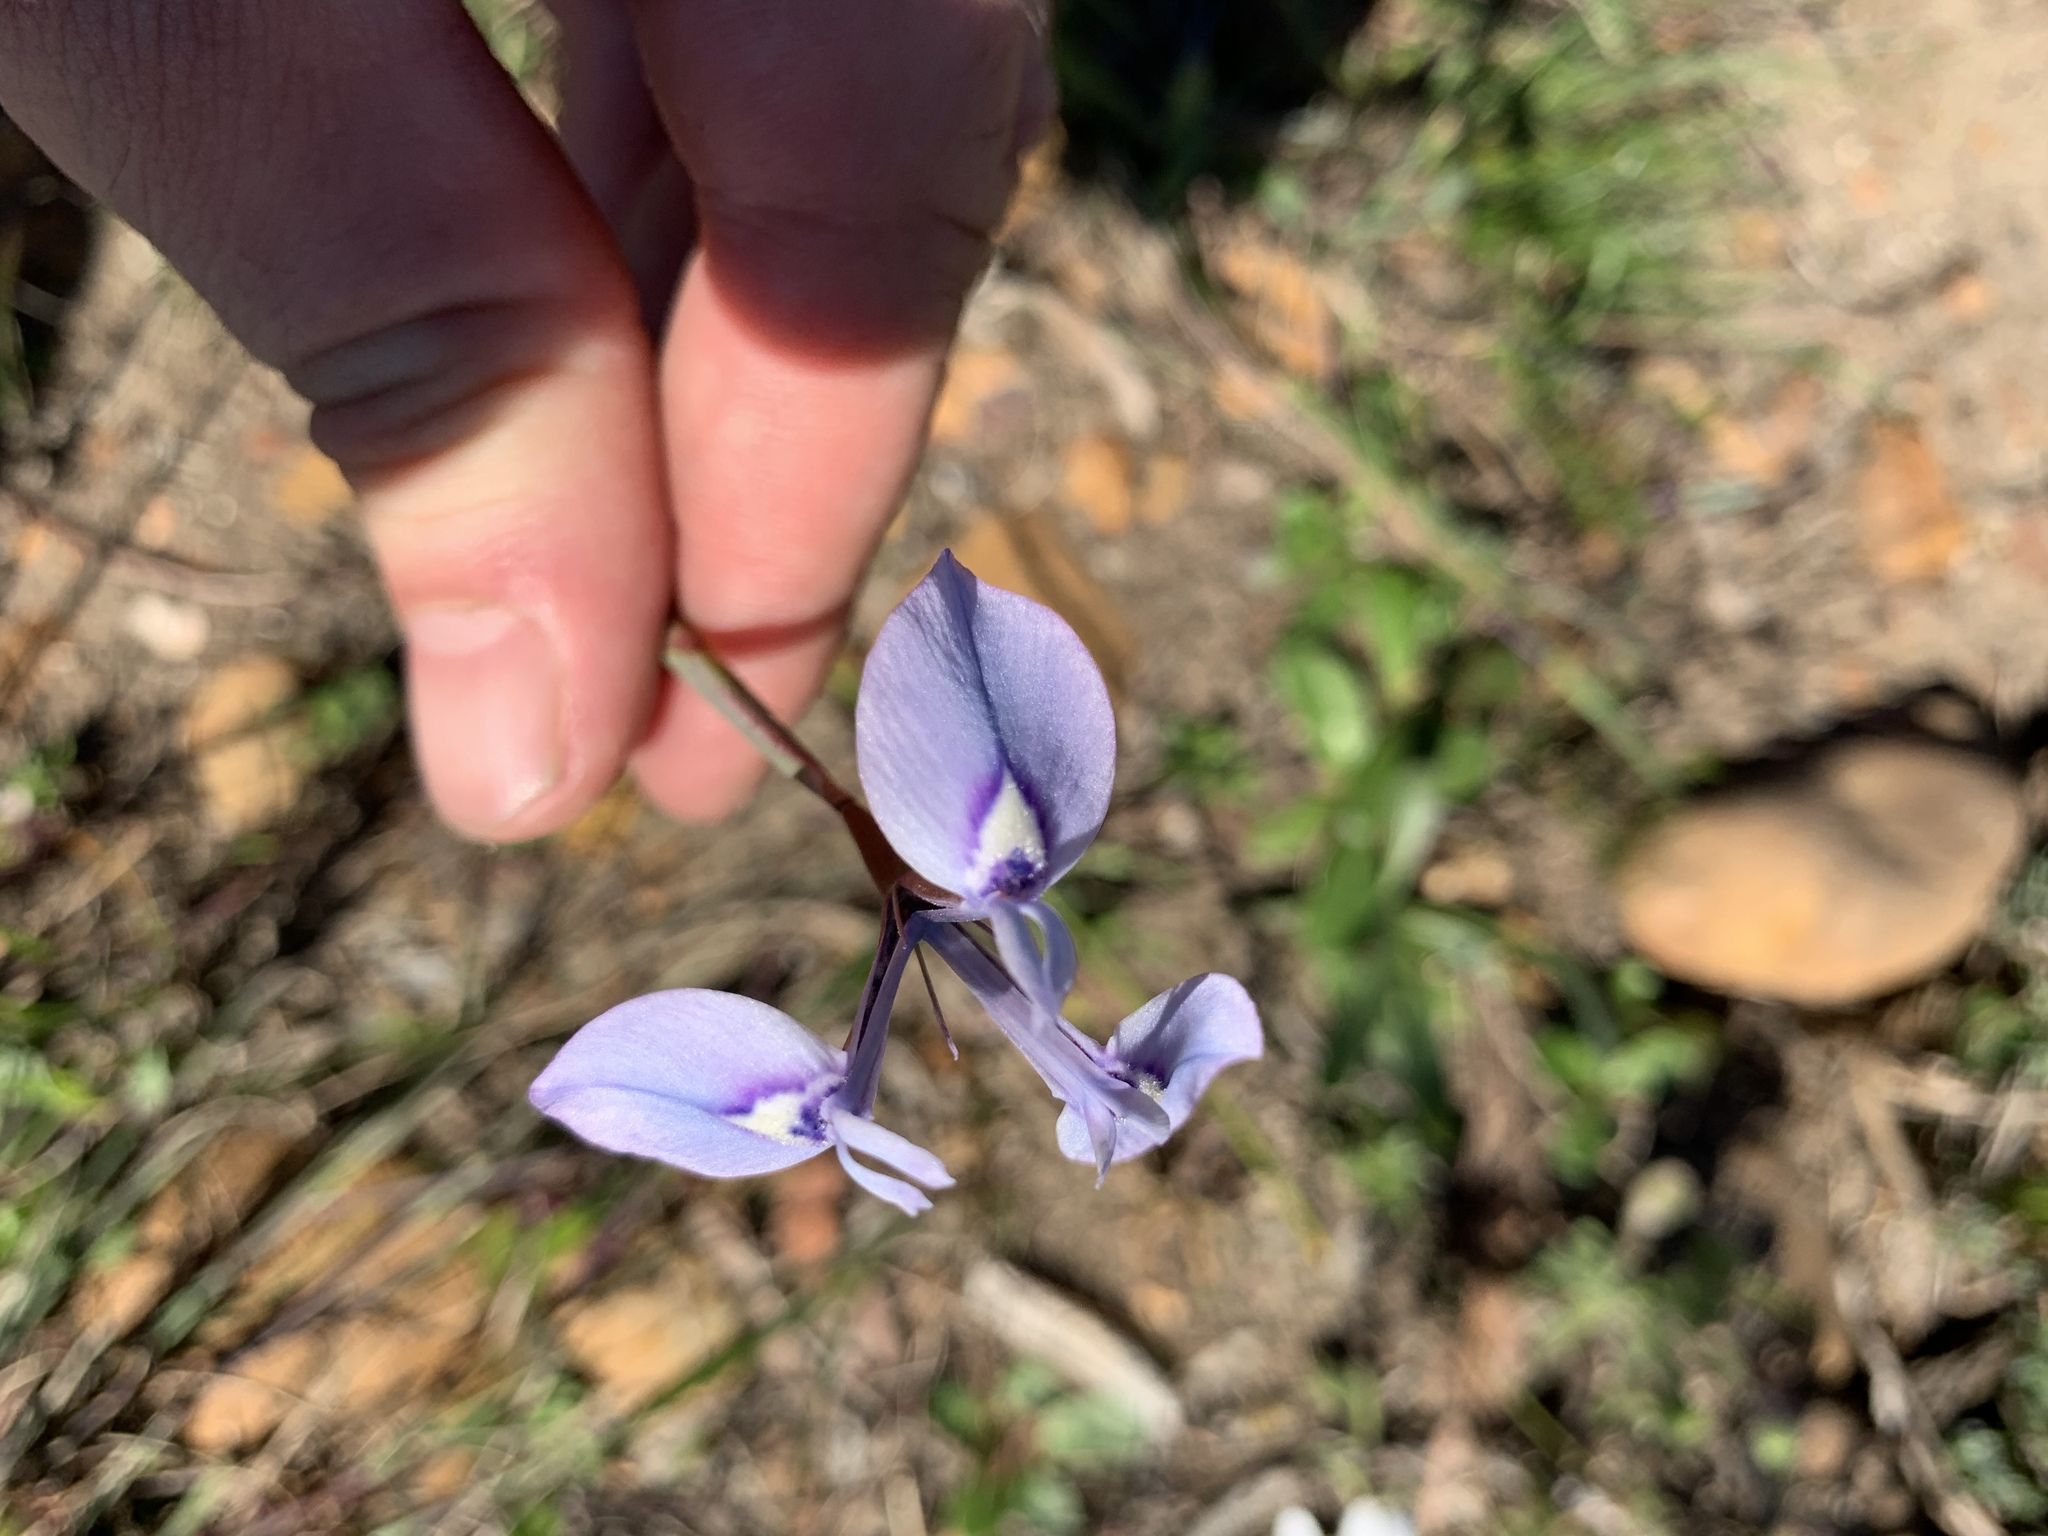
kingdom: Plantae
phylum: Tracheophyta
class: Liliopsida
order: Asparagales
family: Iridaceae
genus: Moraea
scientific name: Moraea tripetala
